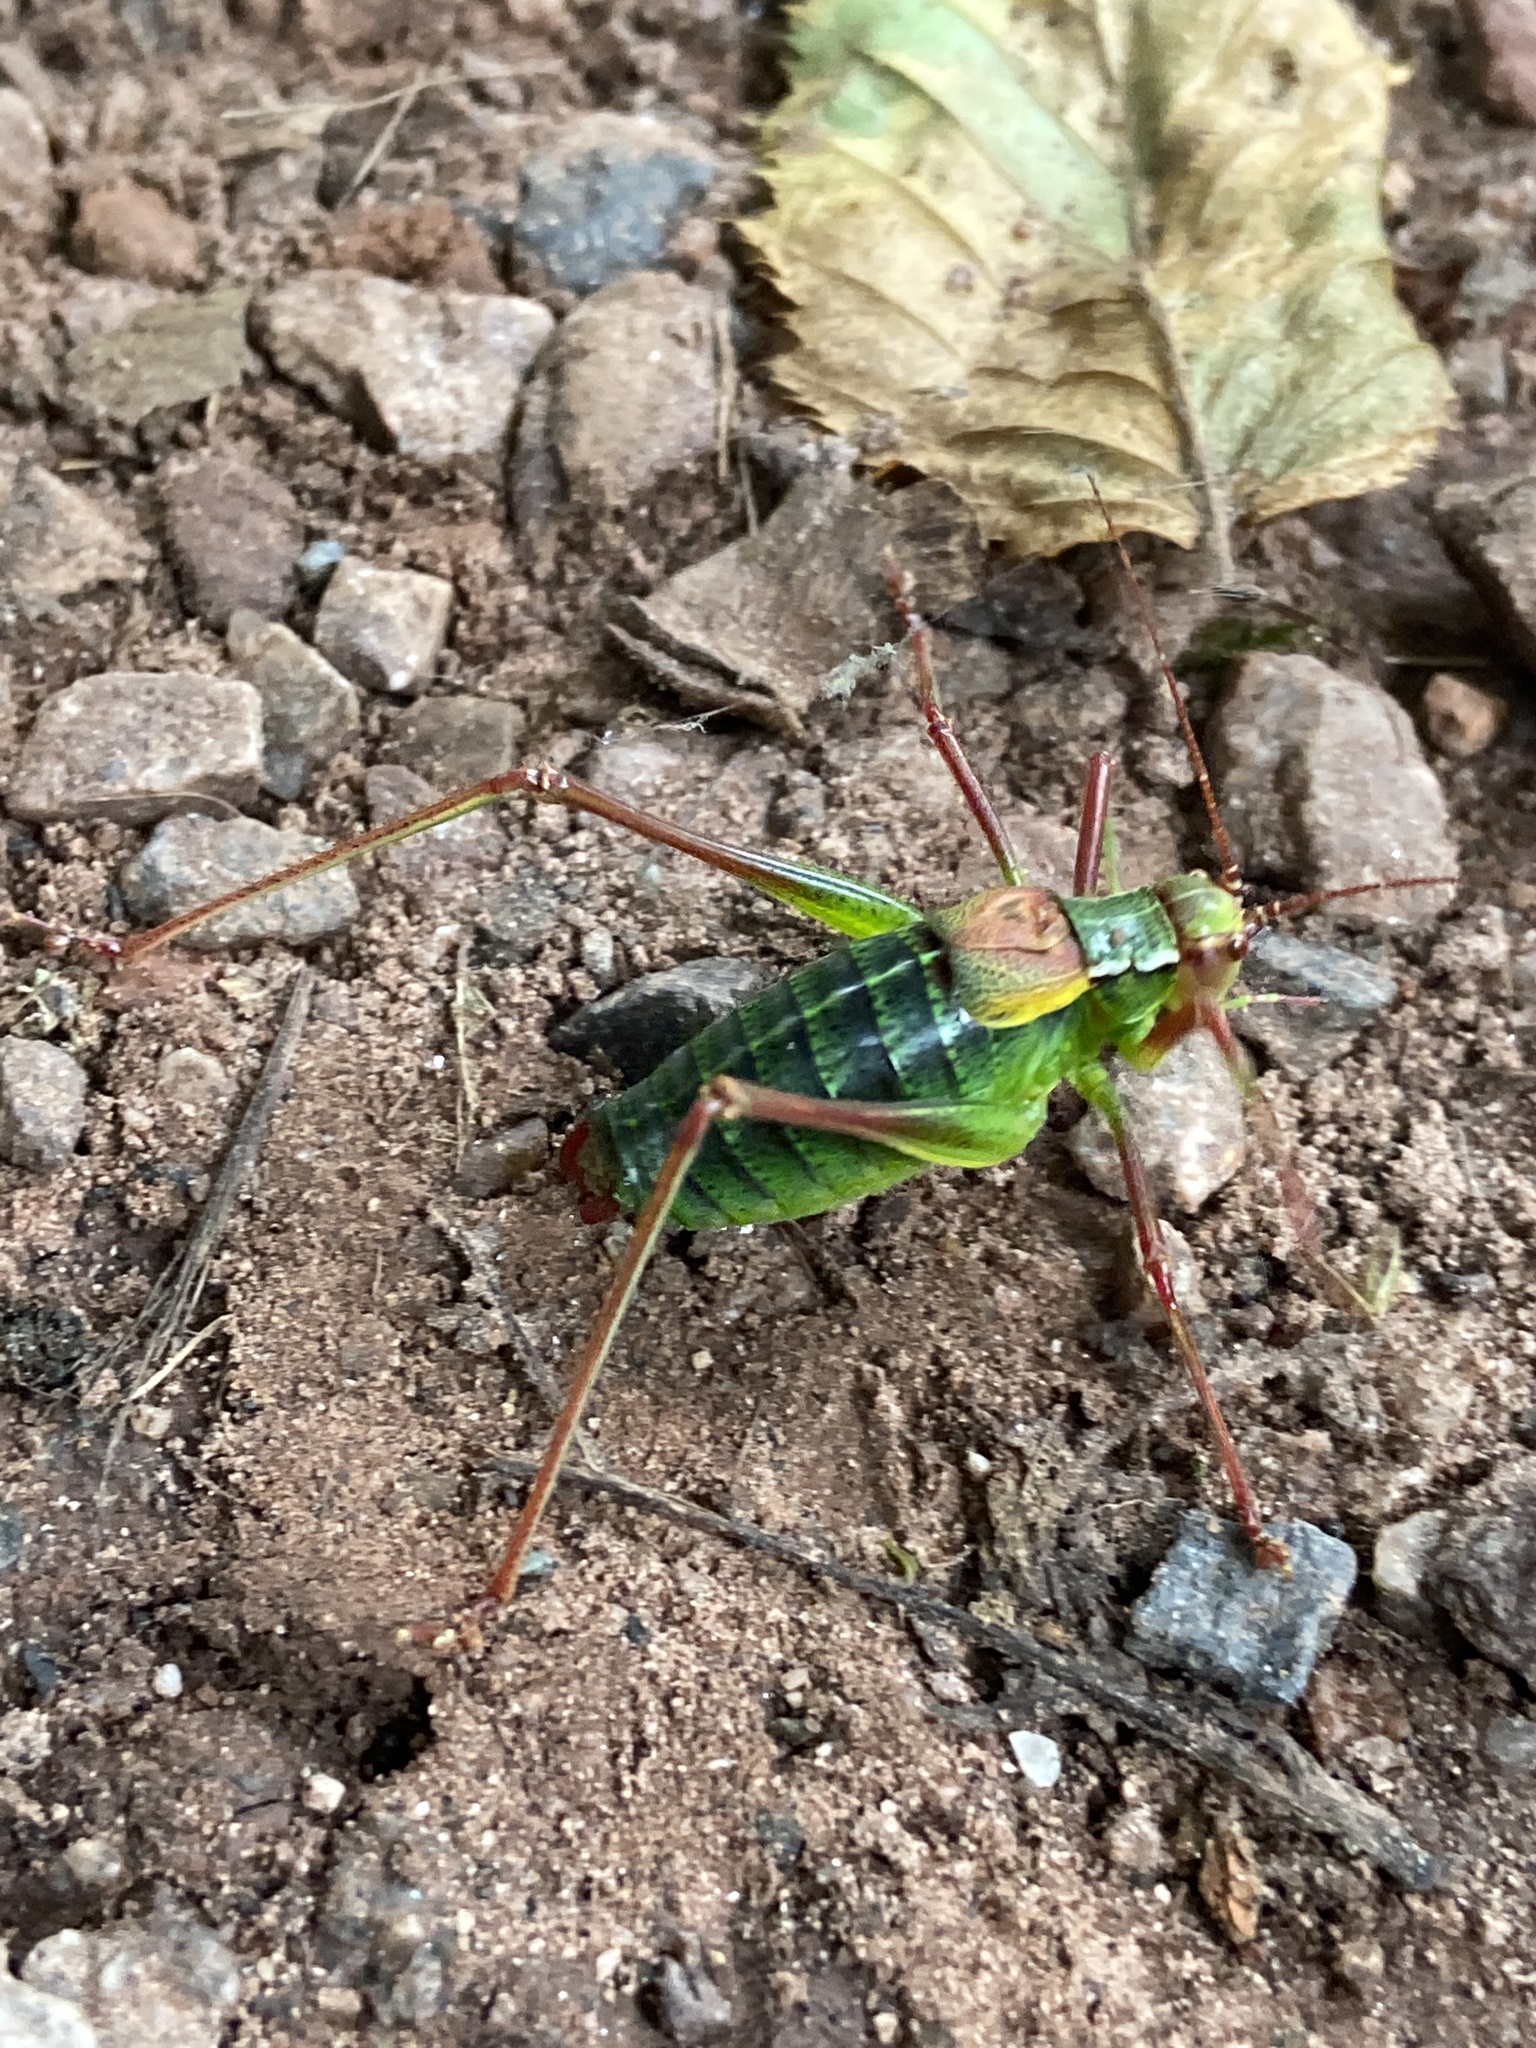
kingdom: Animalia
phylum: Arthropoda
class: Insecta
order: Orthoptera
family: Tettigoniidae
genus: Barbitistes
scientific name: Barbitistes constrictus
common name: Eastern saw-tailed bush cricket
